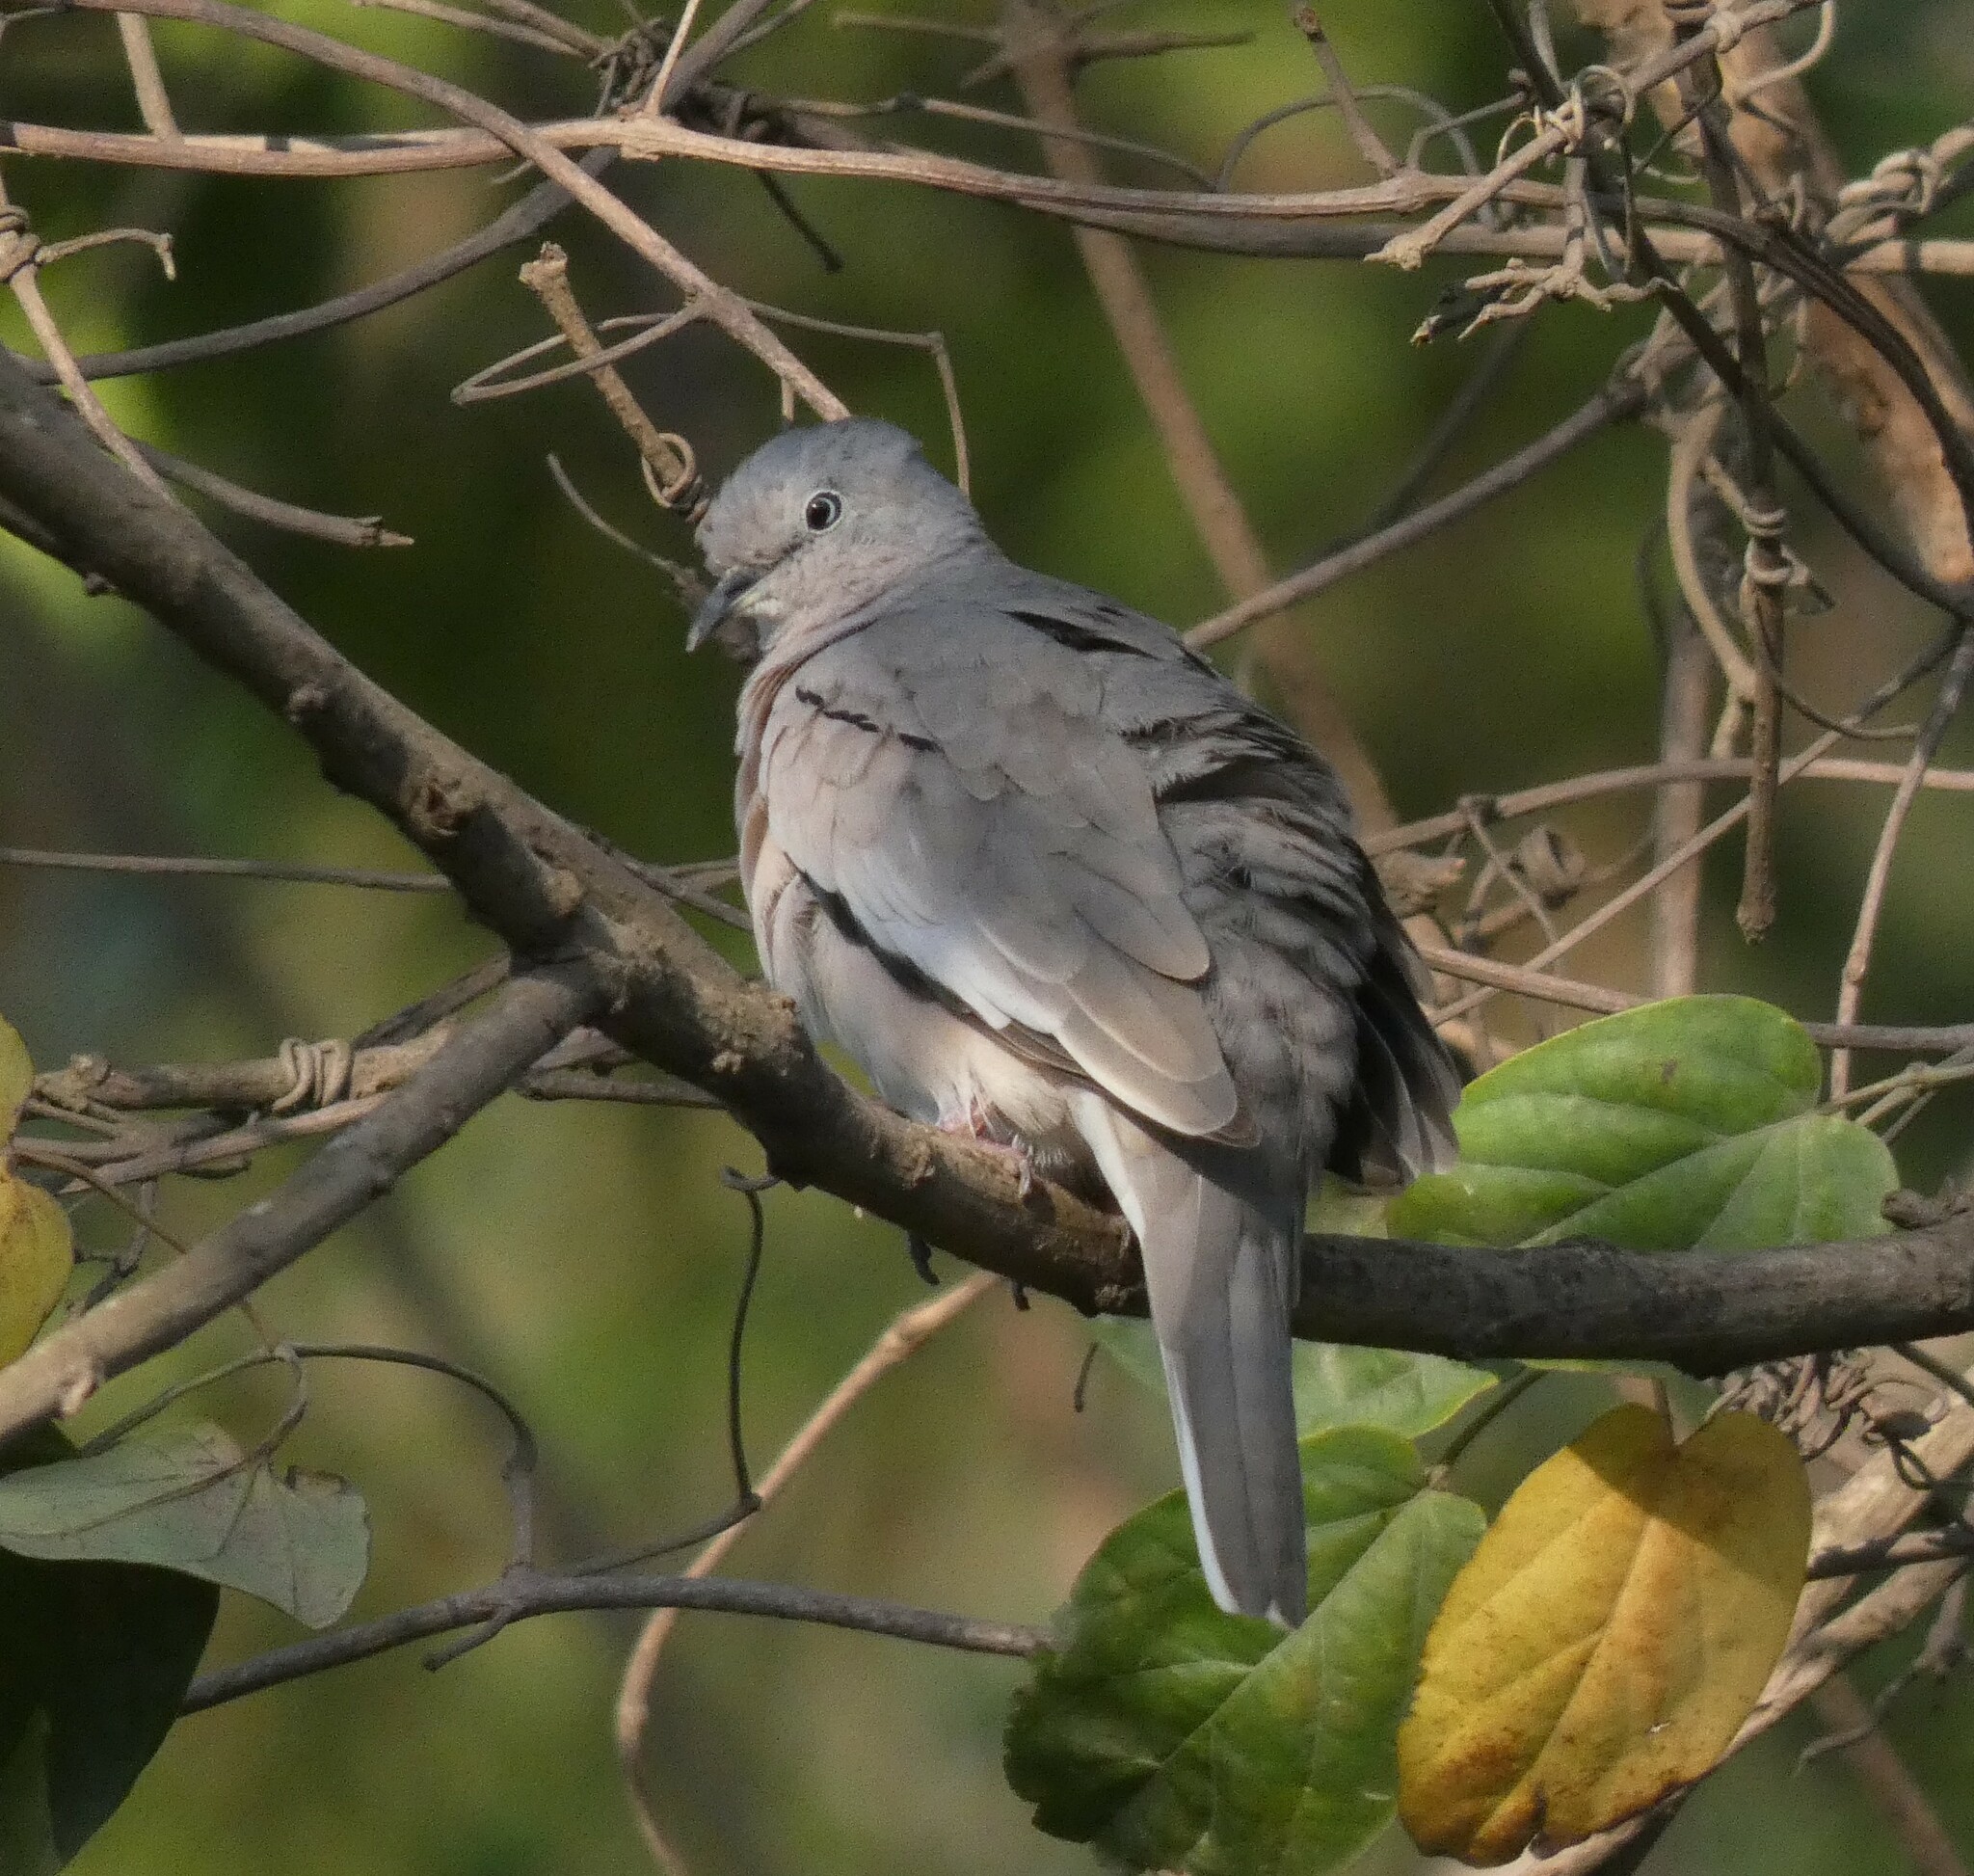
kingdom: Animalia
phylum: Chordata
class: Aves
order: Columbiformes
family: Columbidae
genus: Columbina
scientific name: Columbina picui
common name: Picui ground dove
